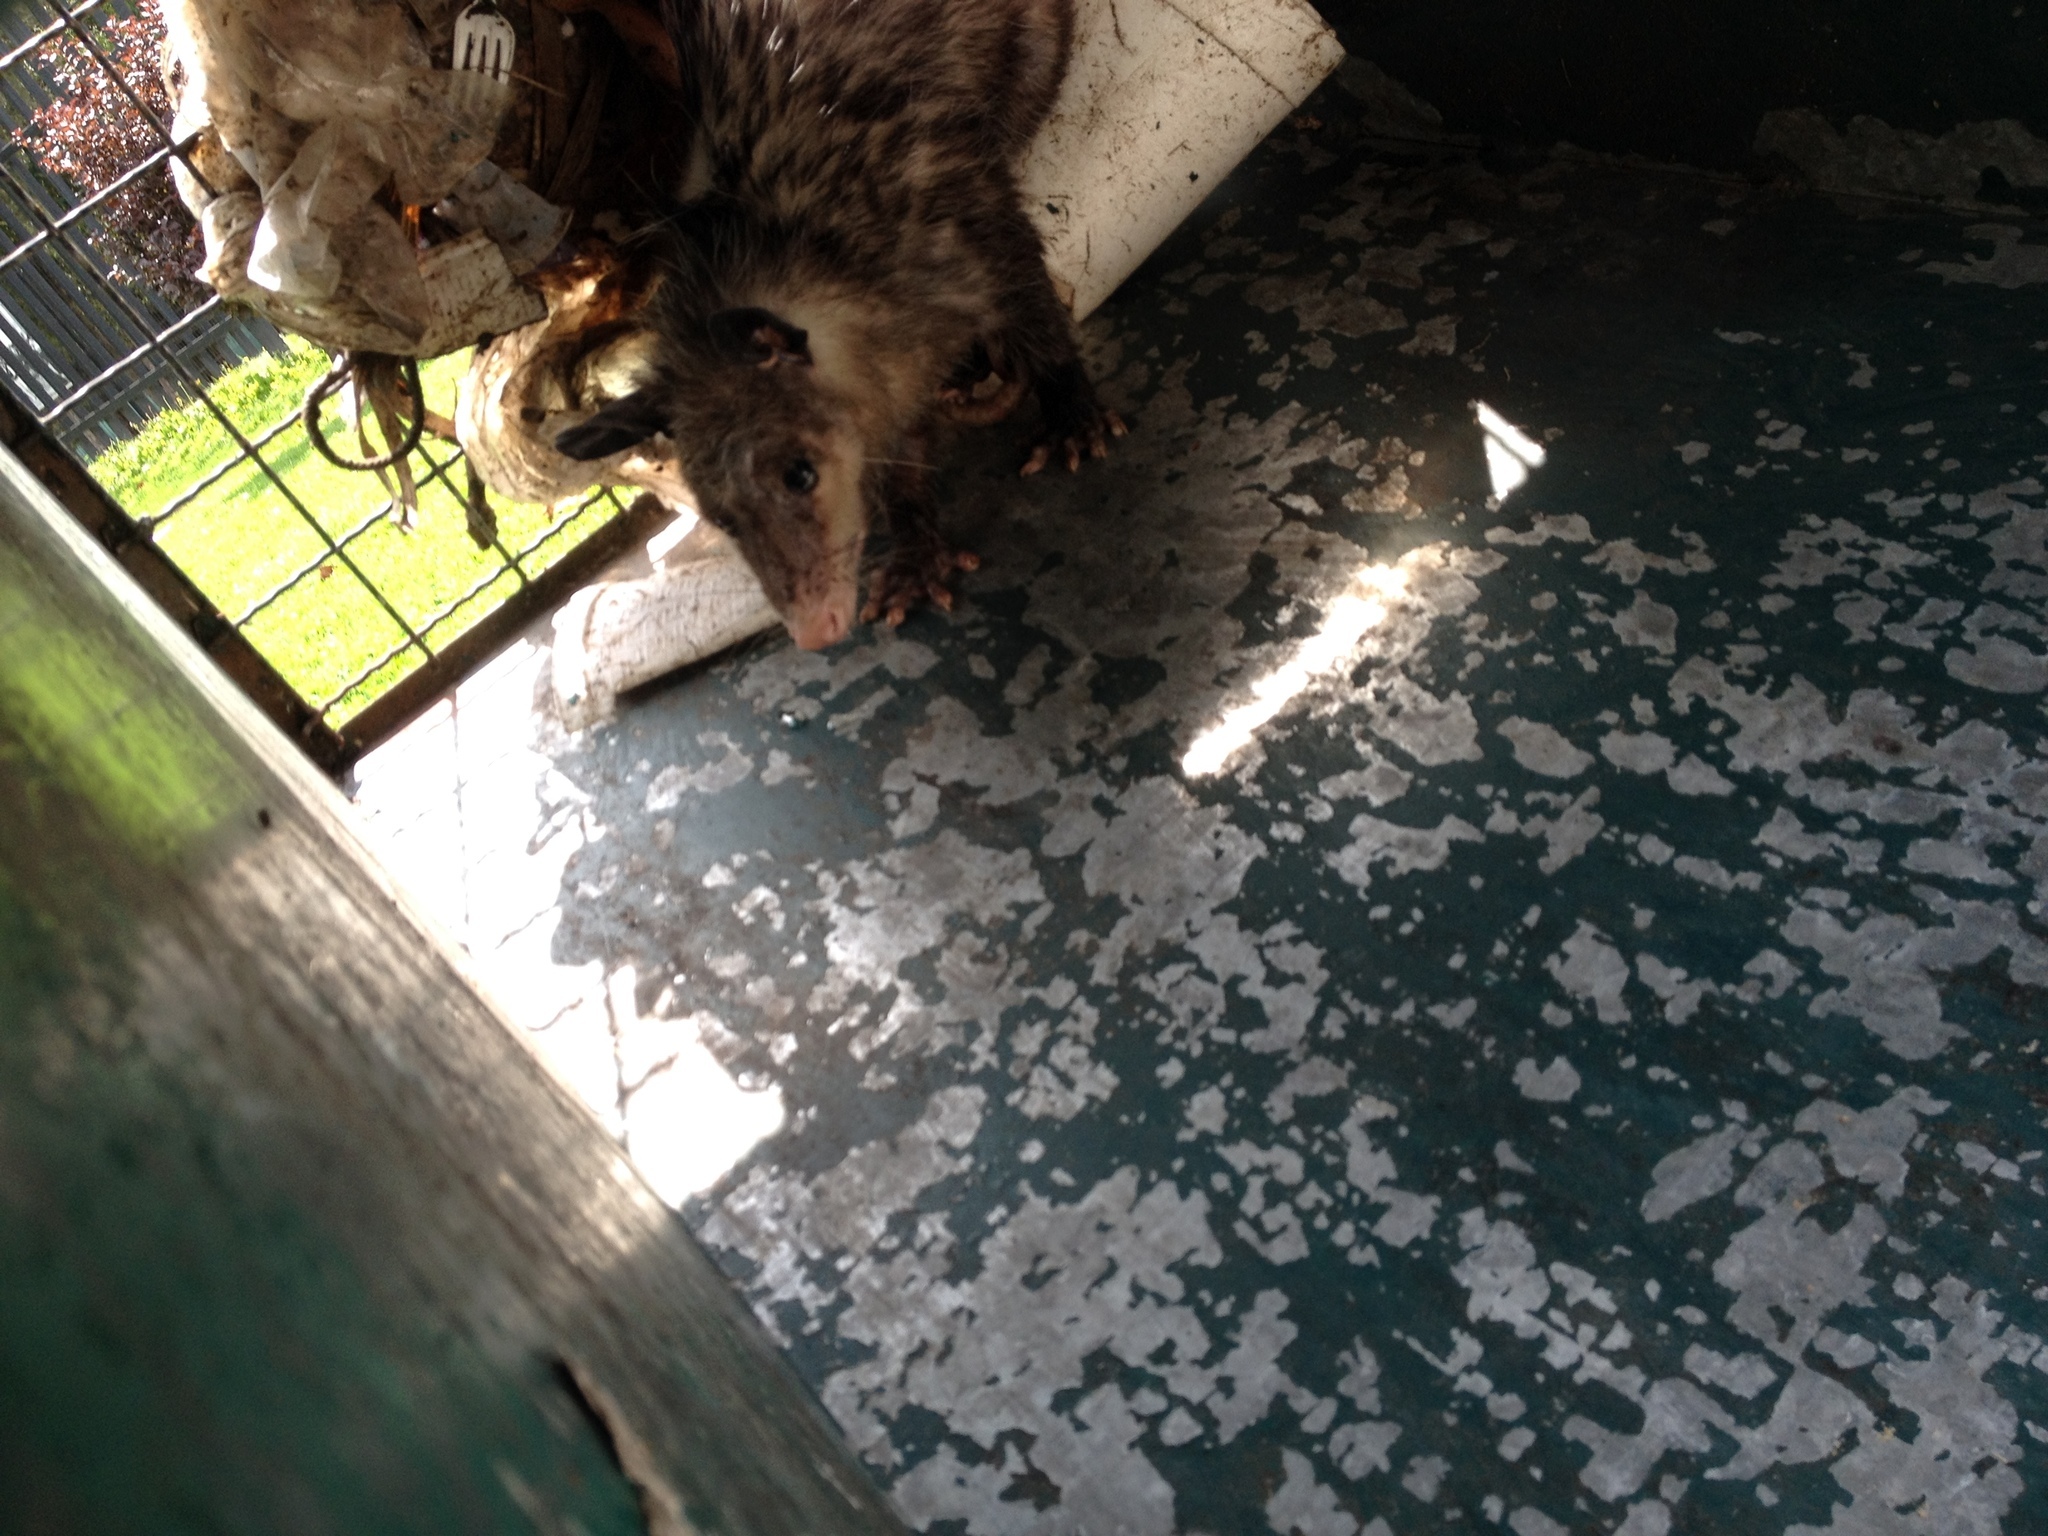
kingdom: Animalia
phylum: Chordata
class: Mammalia
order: Didelphimorphia
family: Didelphidae
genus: Didelphis
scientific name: Didelphis virginiana
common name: Virginia opossum
